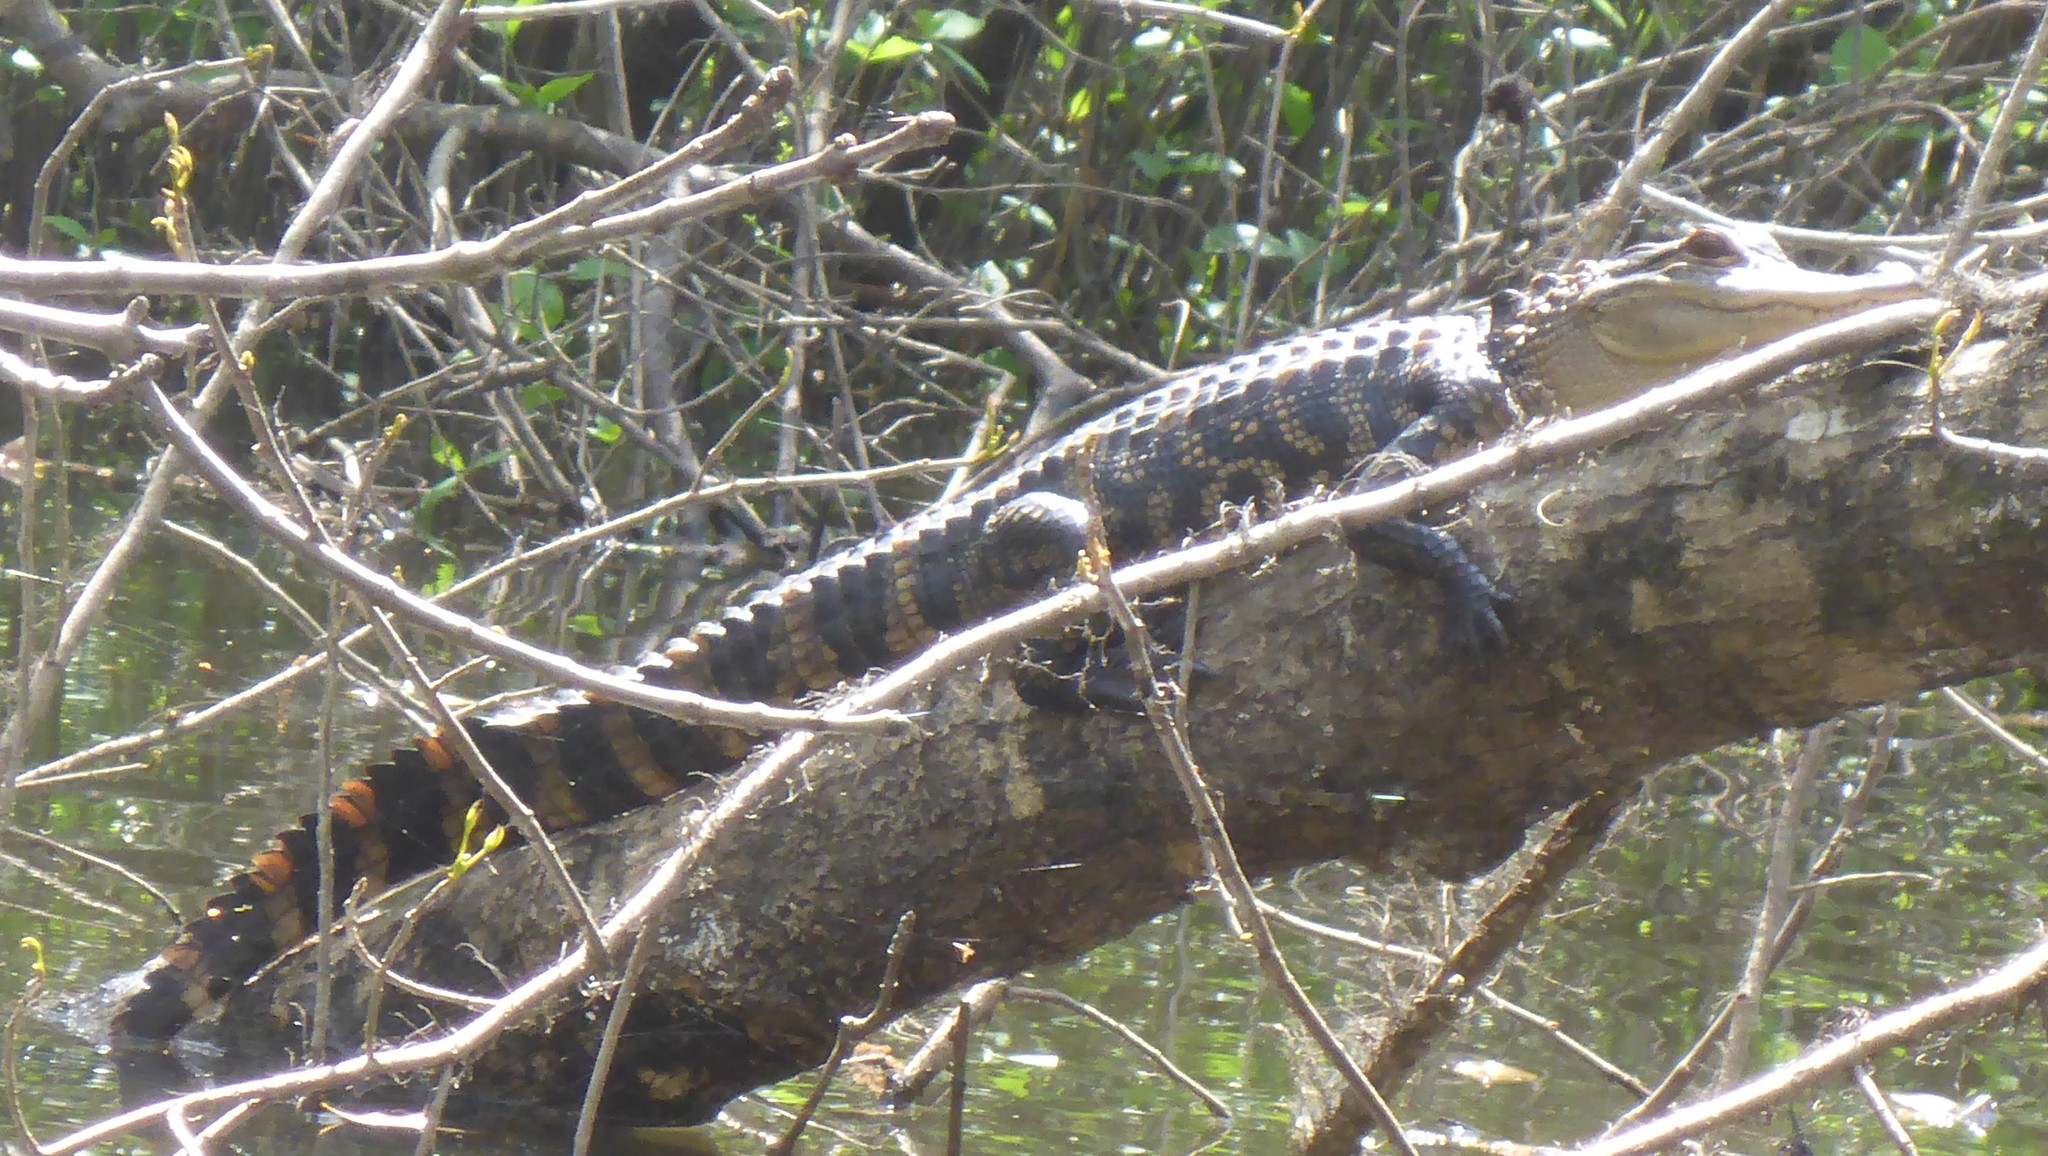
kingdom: Animalia
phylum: Chordata
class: Crocodylia
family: Alligatoridae
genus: Alligator
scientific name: Alligator mississippiensis
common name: American alligator
